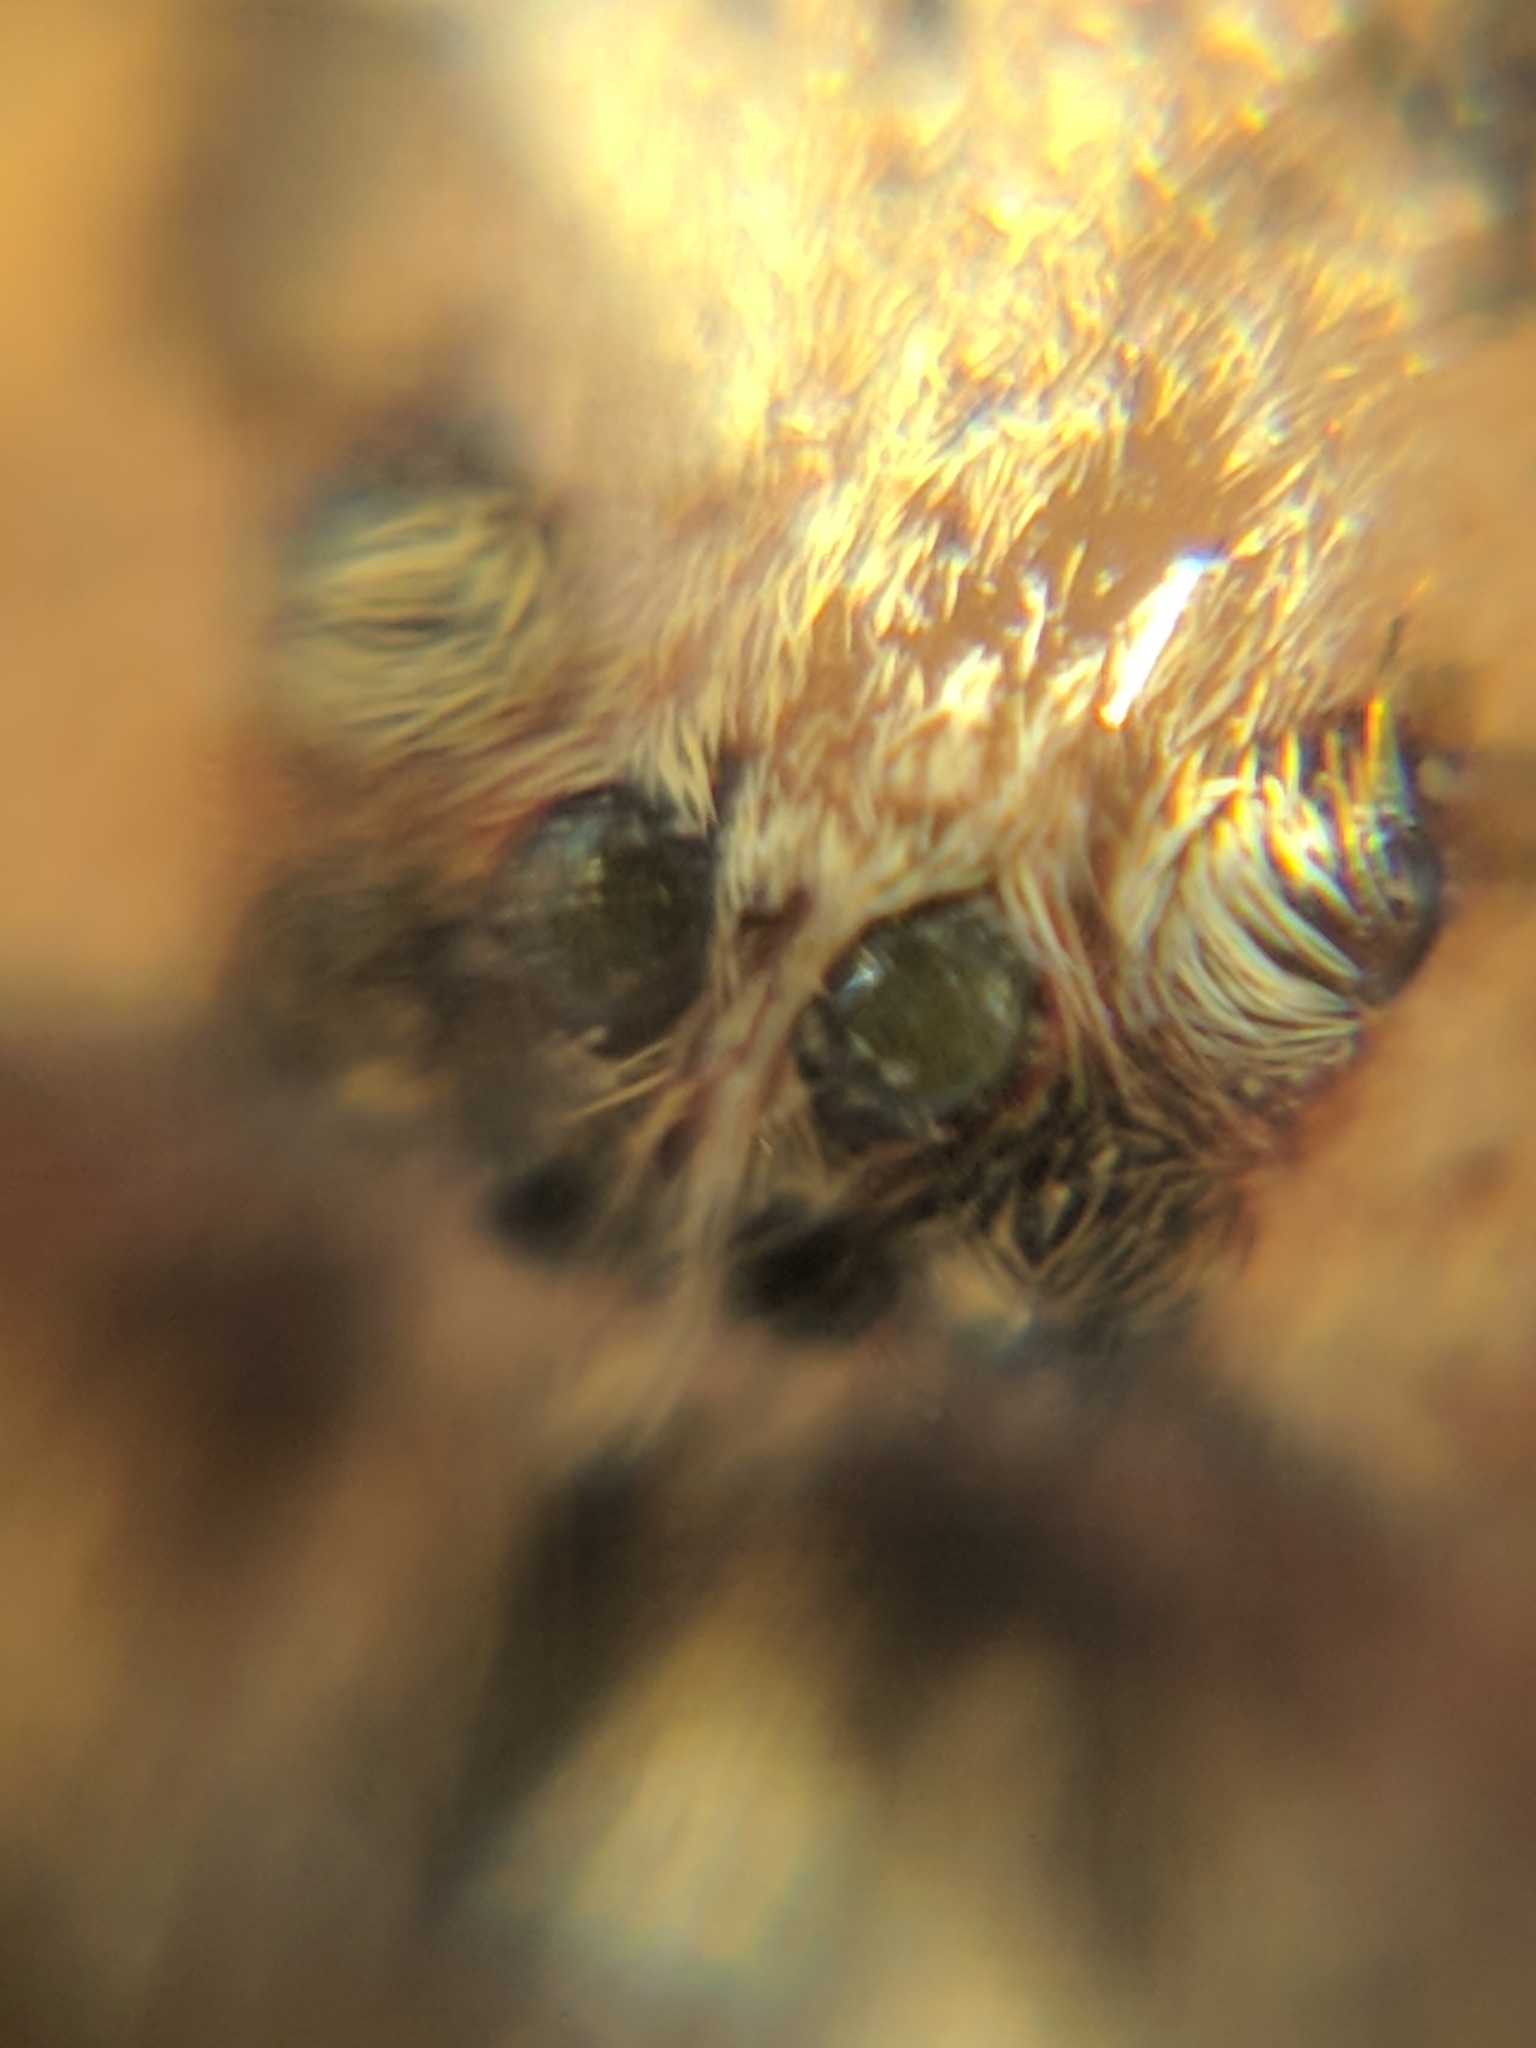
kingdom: Animalia
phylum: Arthropoda
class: Arachnida
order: Araneae
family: Zoropsidae
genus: Zoropsis
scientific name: Zoropsis spinimana
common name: Zoropsid spider
